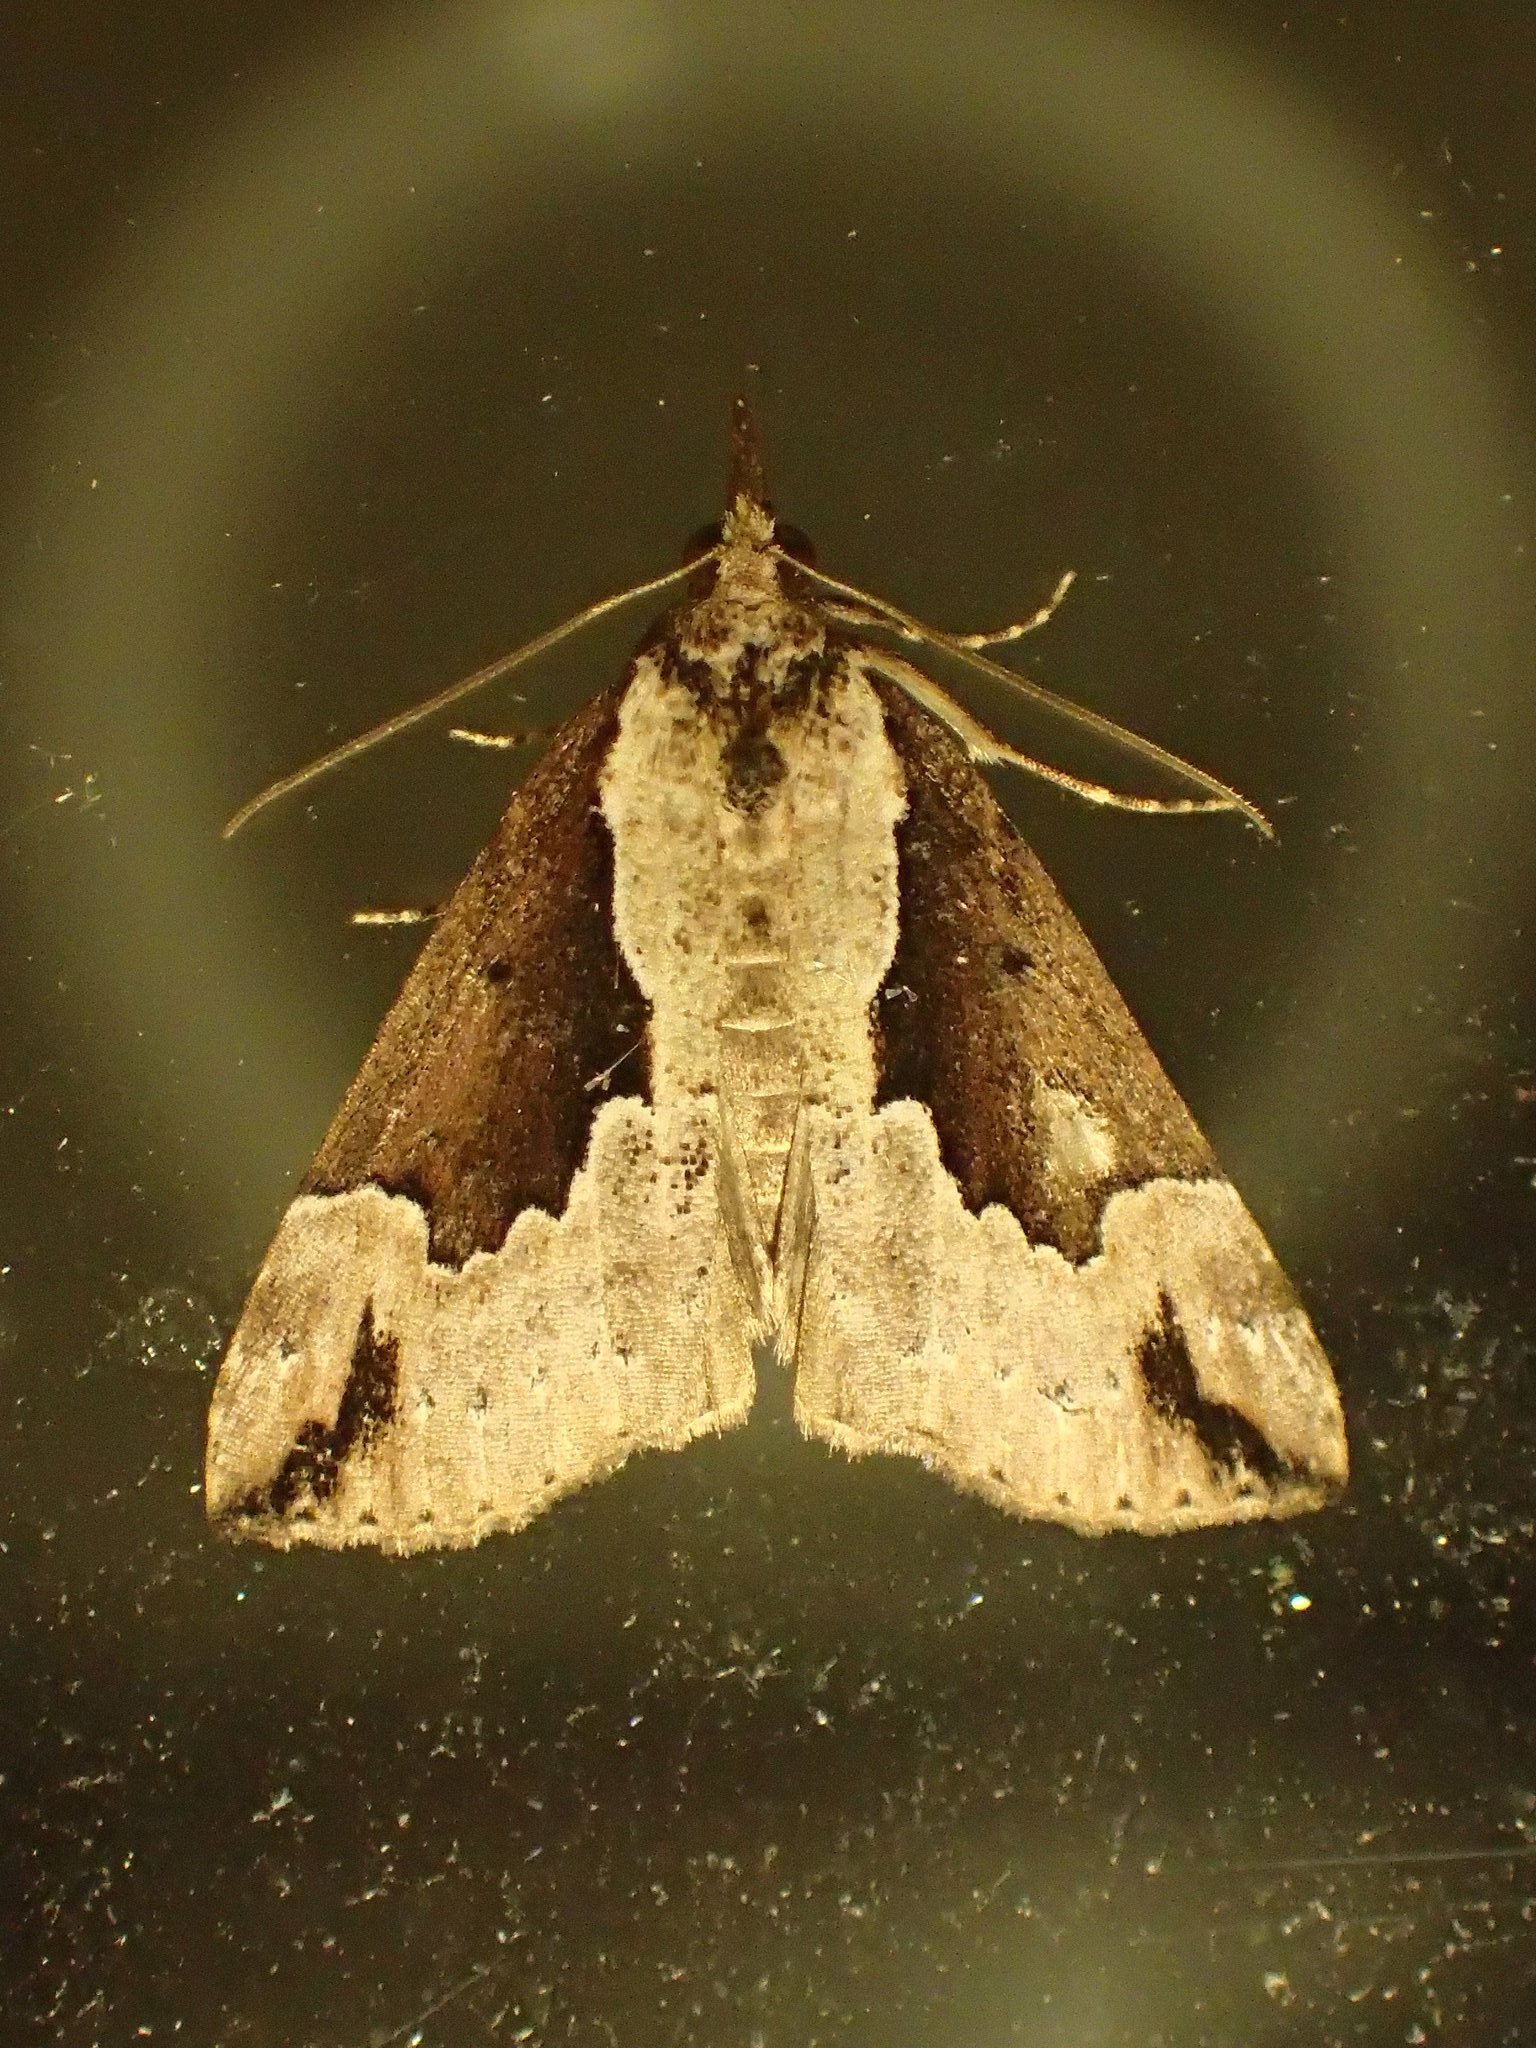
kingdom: Animalia
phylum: Arthropoda
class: Insecta
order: Lepidoptera
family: Erebidae
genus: Hypena
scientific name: Hypena baltimoralis
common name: Baltimore snout
